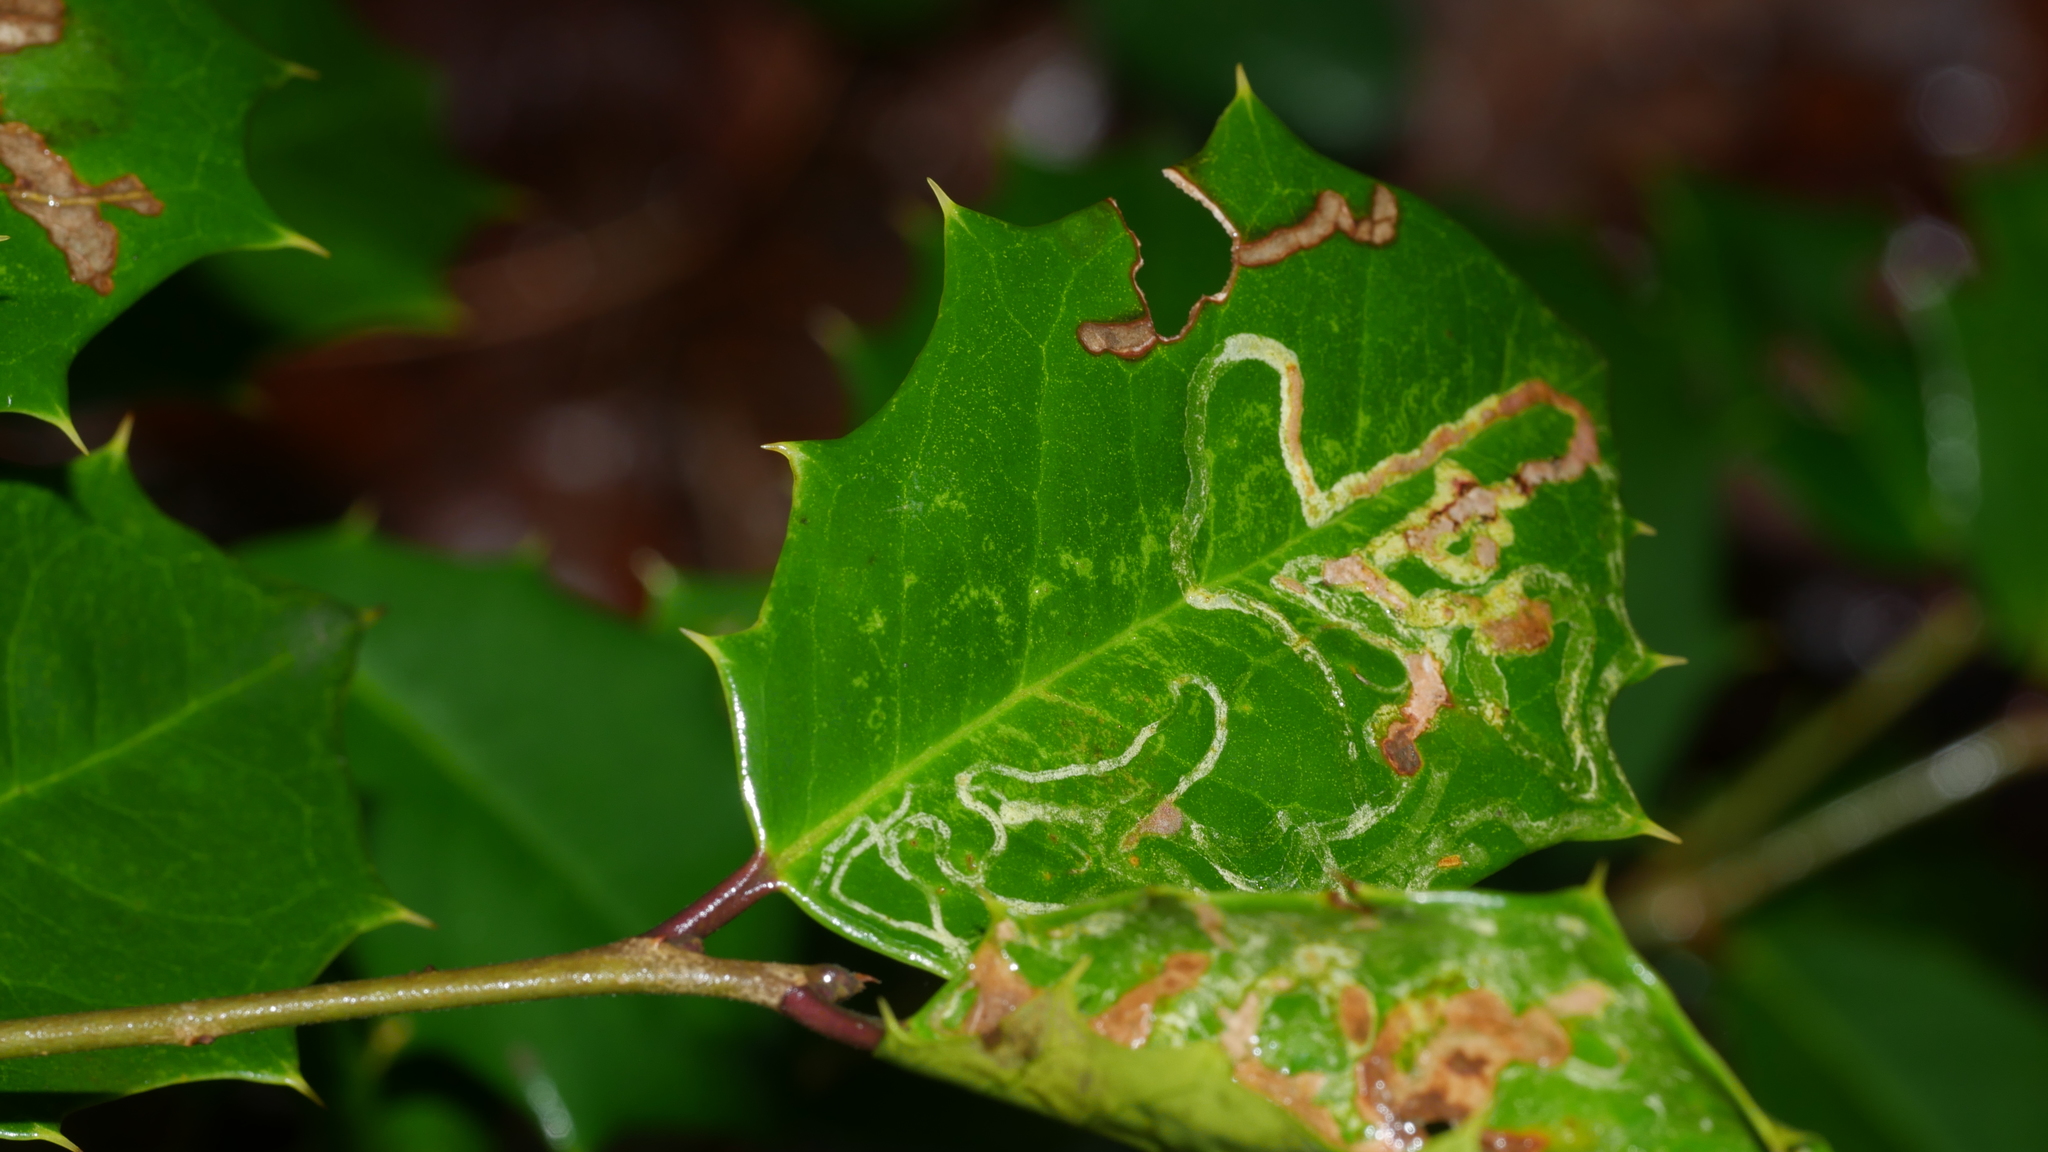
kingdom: Animalia
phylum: Arthropoda
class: Insecta
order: Diptera
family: Agromyzidae
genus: Phytomyza
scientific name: Phytomyza opacae
